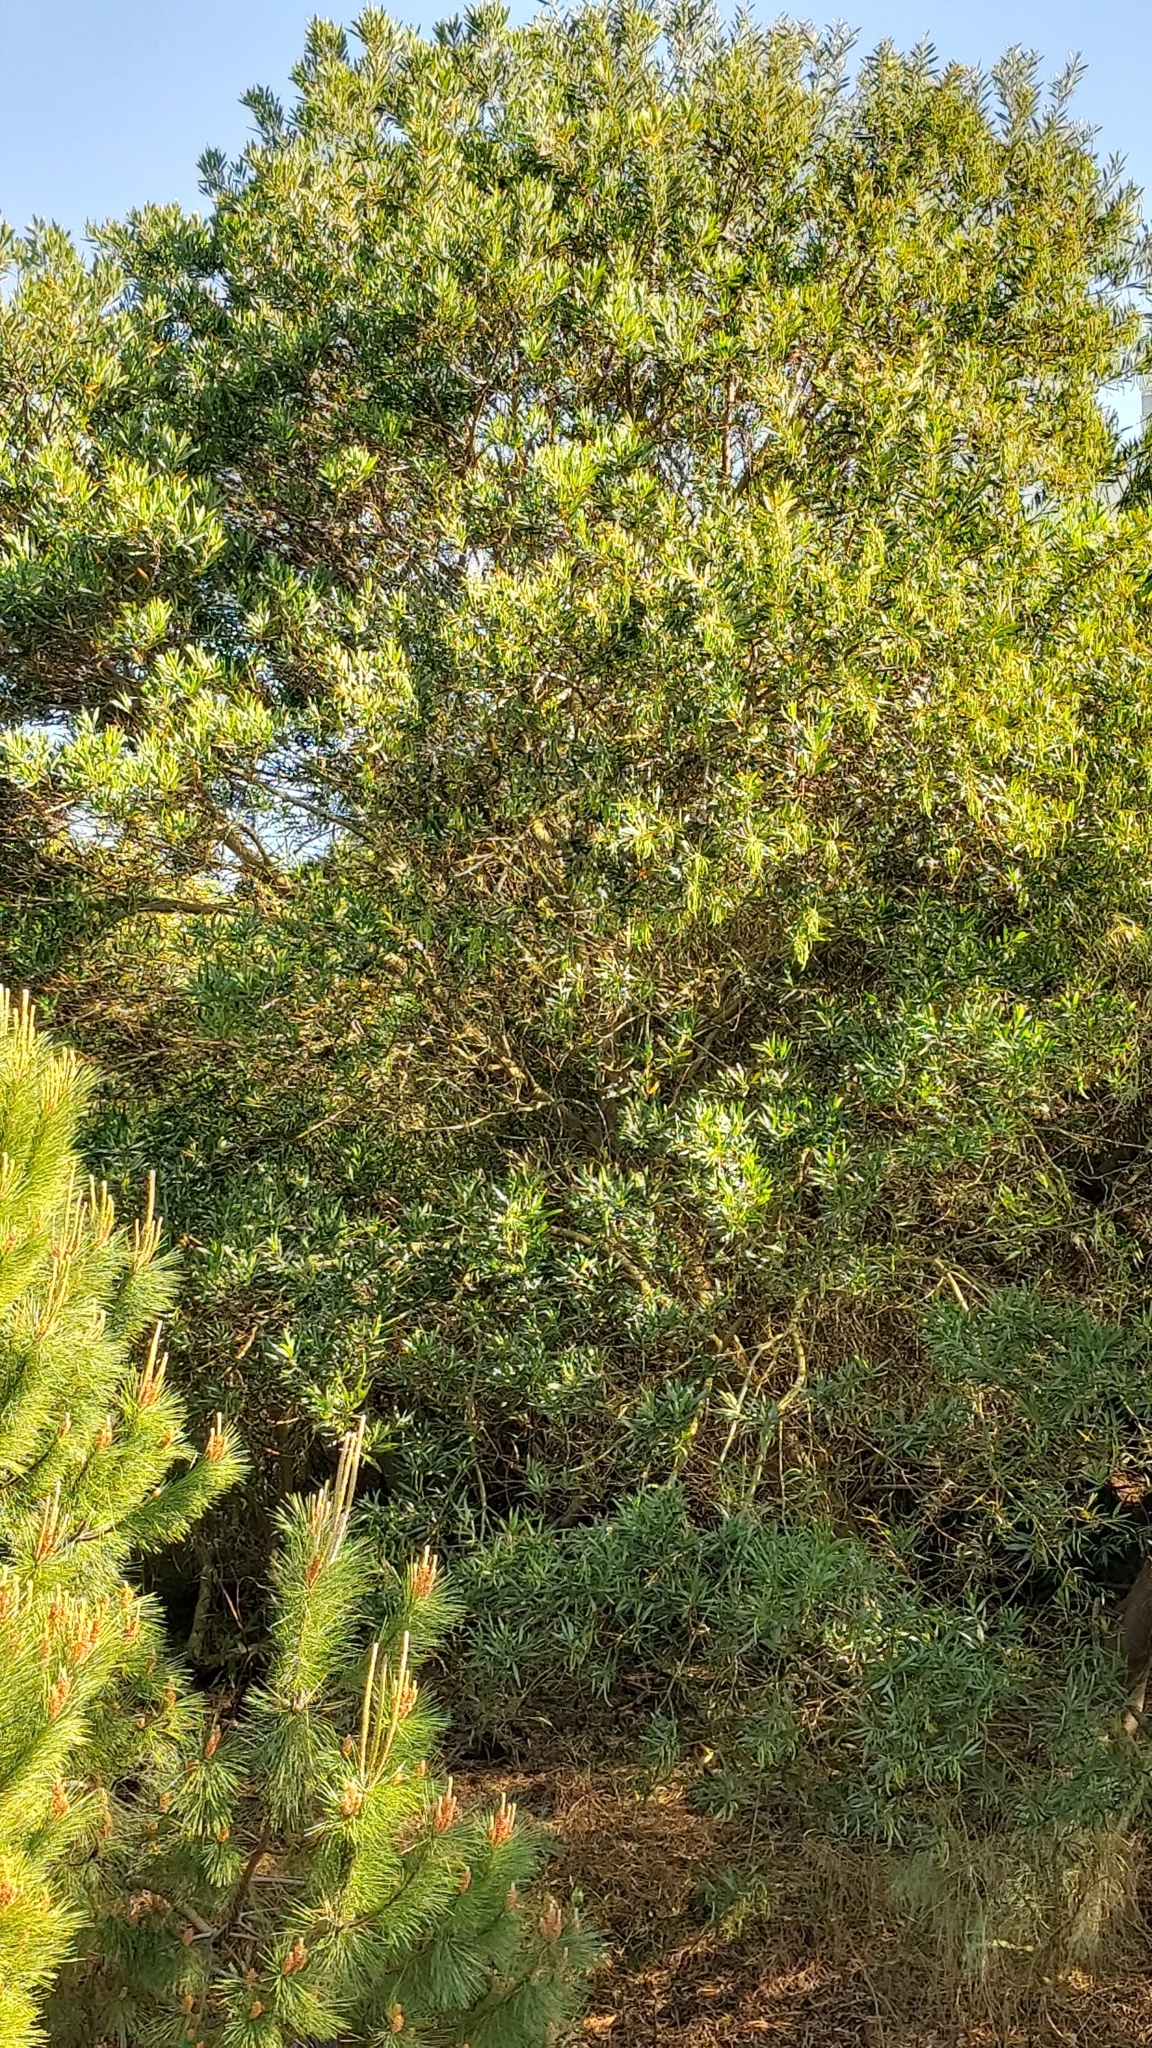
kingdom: Plantae
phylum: Tracheophyta
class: Magnoliopsida
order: Fabales
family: Fabaceae
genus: Acacia
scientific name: Acacia longifolia
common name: Sydney golden wattle
